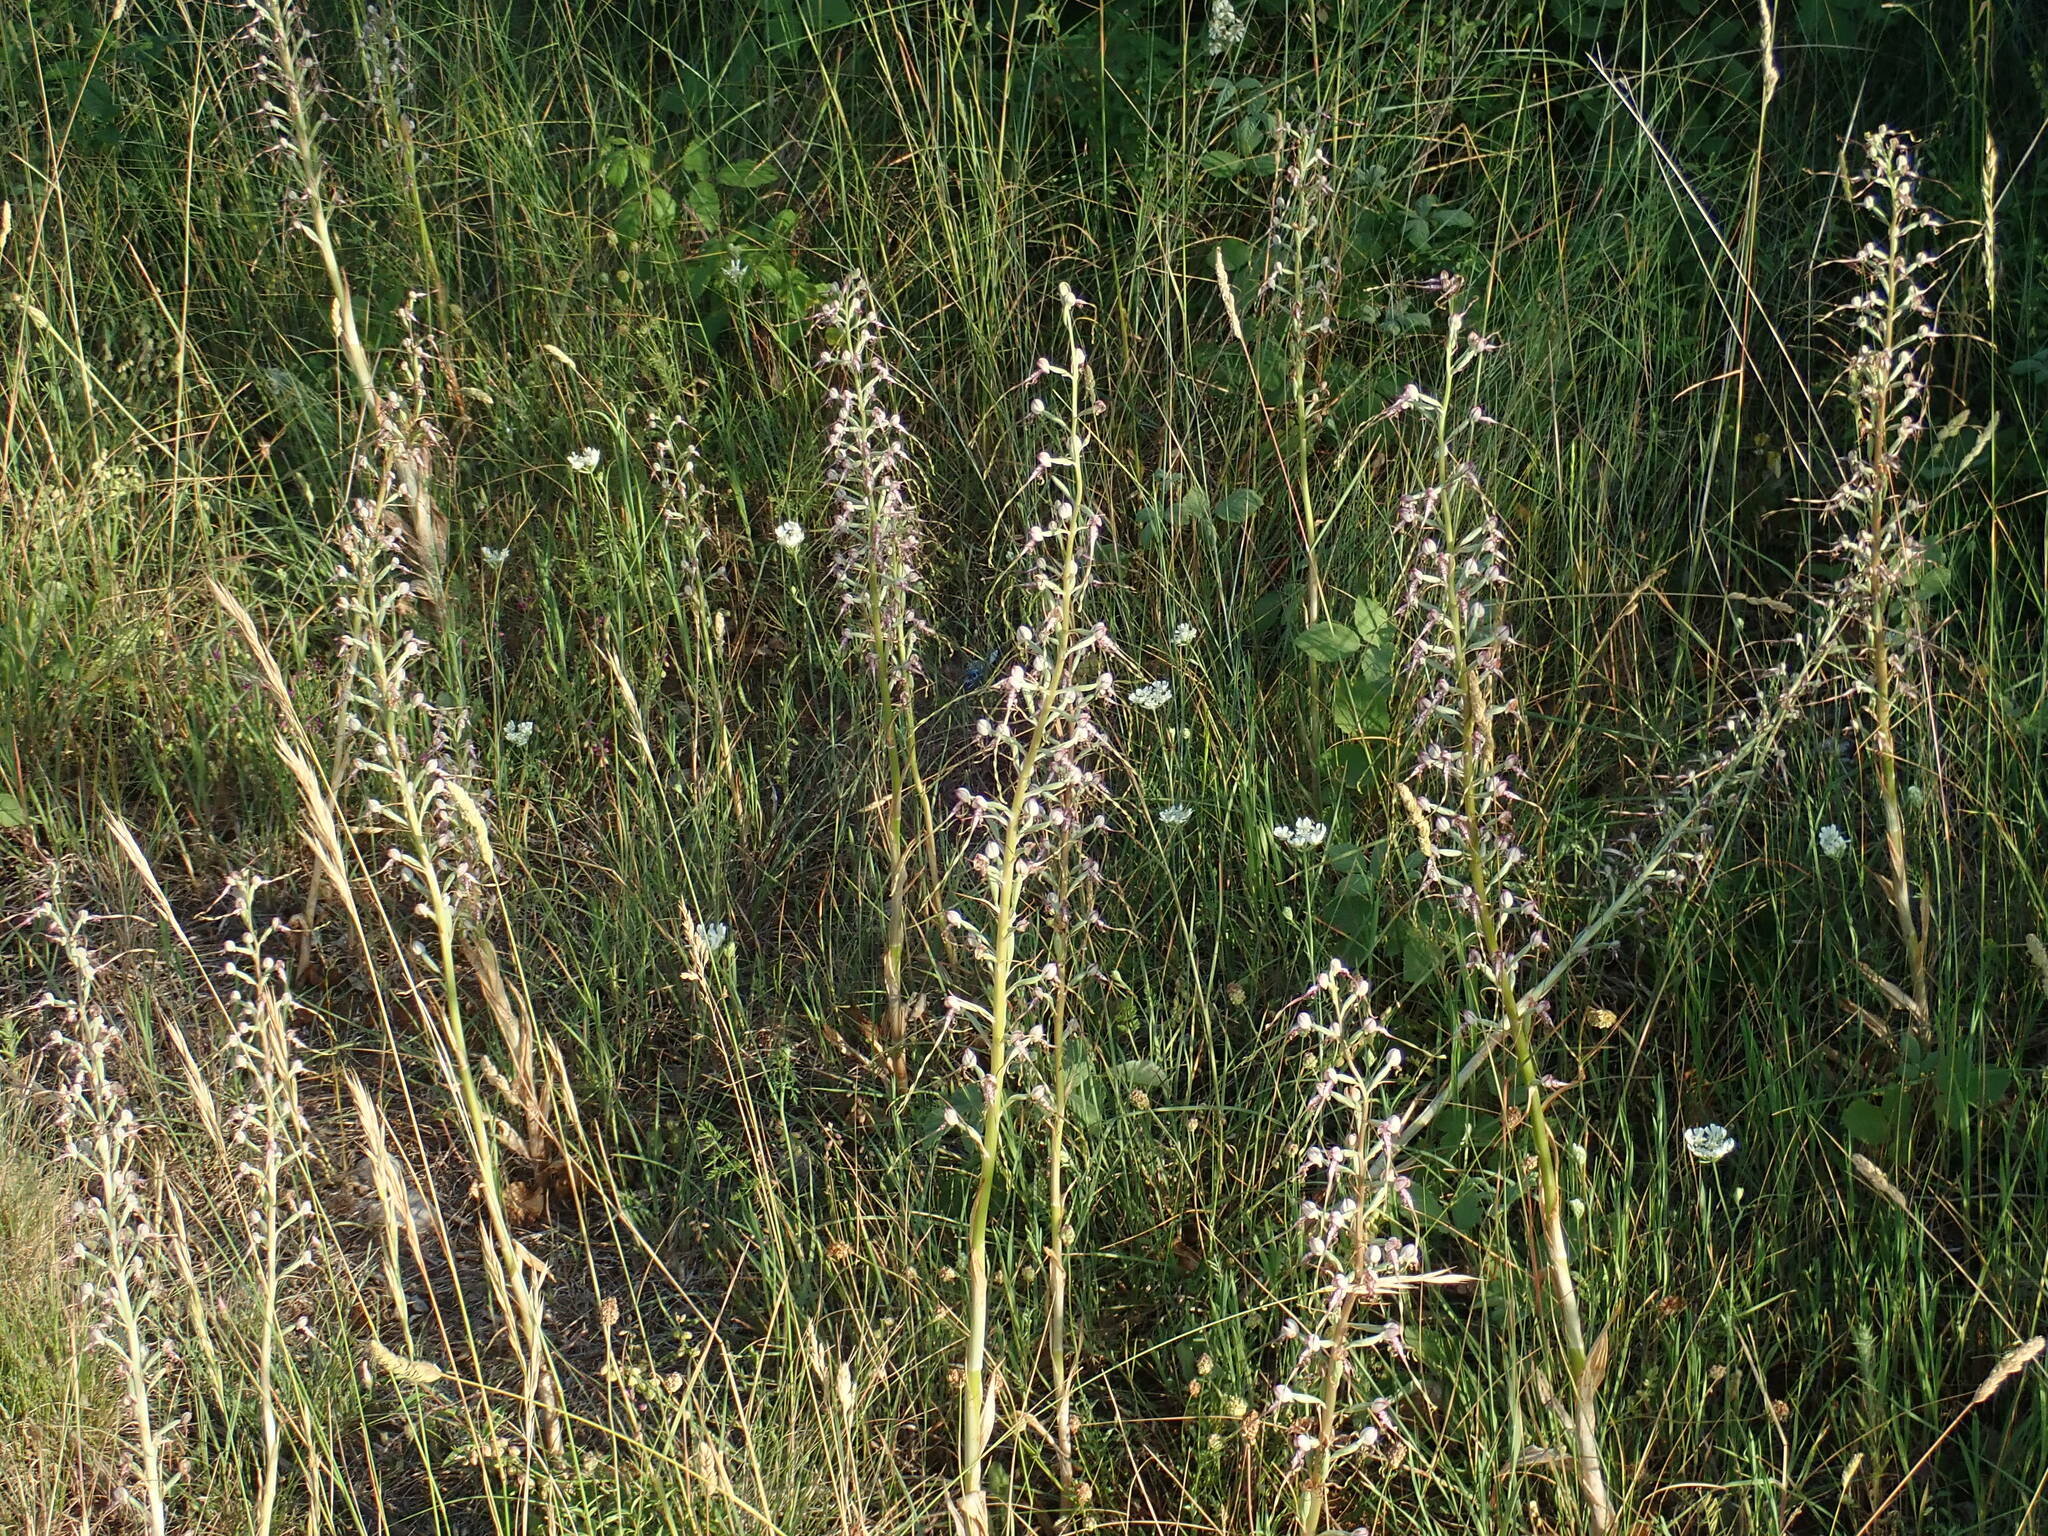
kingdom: Plantae
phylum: Tracheophyta
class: Liliopsida
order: Asparagales
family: Orchidaceae
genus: Himantoglossum
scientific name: Himantoglossum adriaticum
